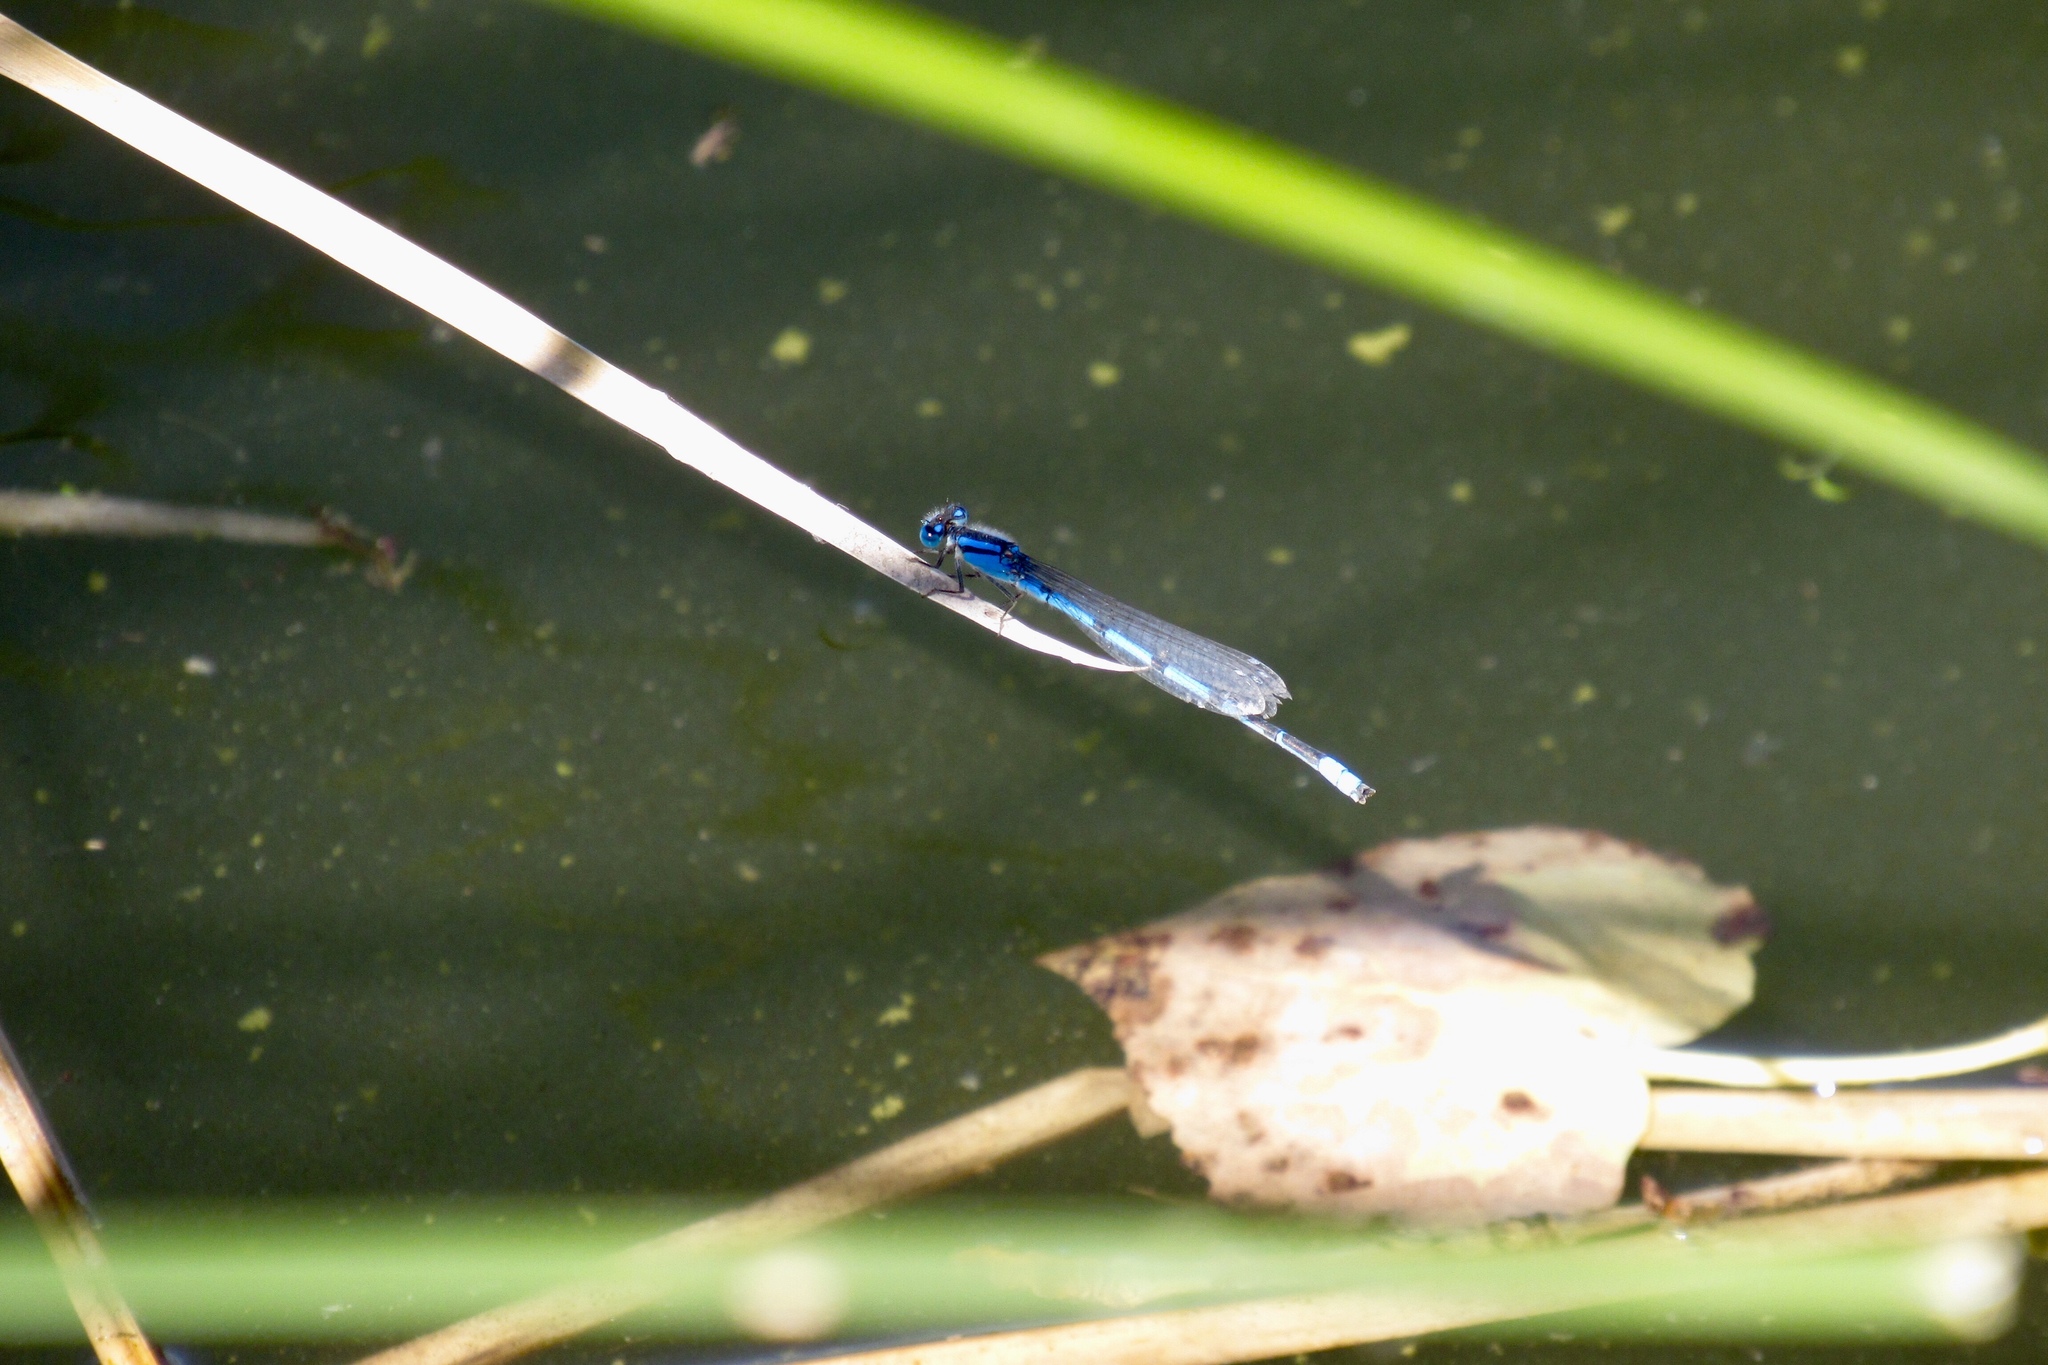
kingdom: Animalia
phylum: Arthropoda
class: Insecta
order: Odonata
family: Coenagrionidae
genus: Enallagma
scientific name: Enallagma civile
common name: Damselfly
